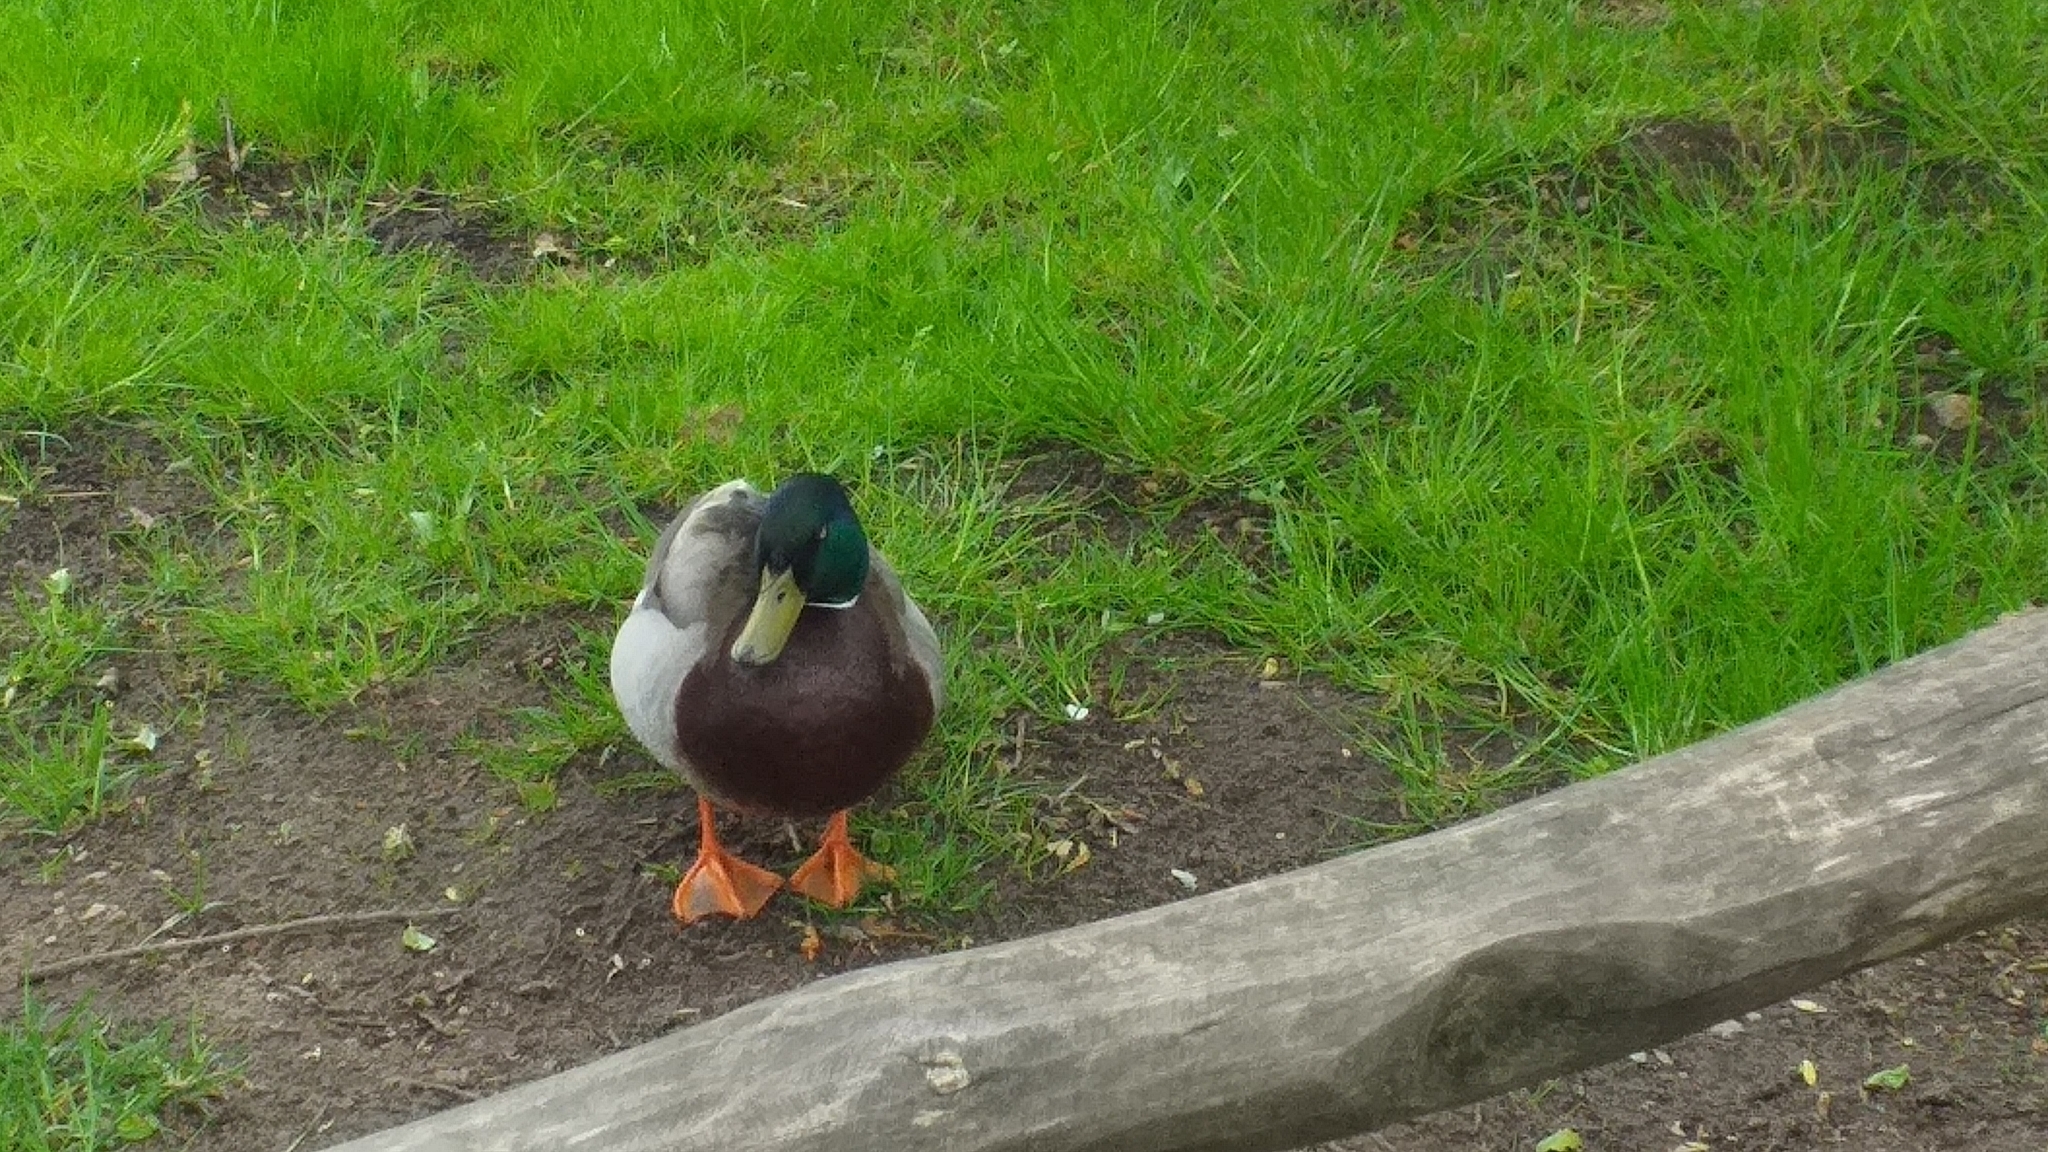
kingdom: Animalia
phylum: Chordata
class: Aves
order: Anseriformes
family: Anatidae
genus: Anas
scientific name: Anas platyrhynchos
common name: Mallard
